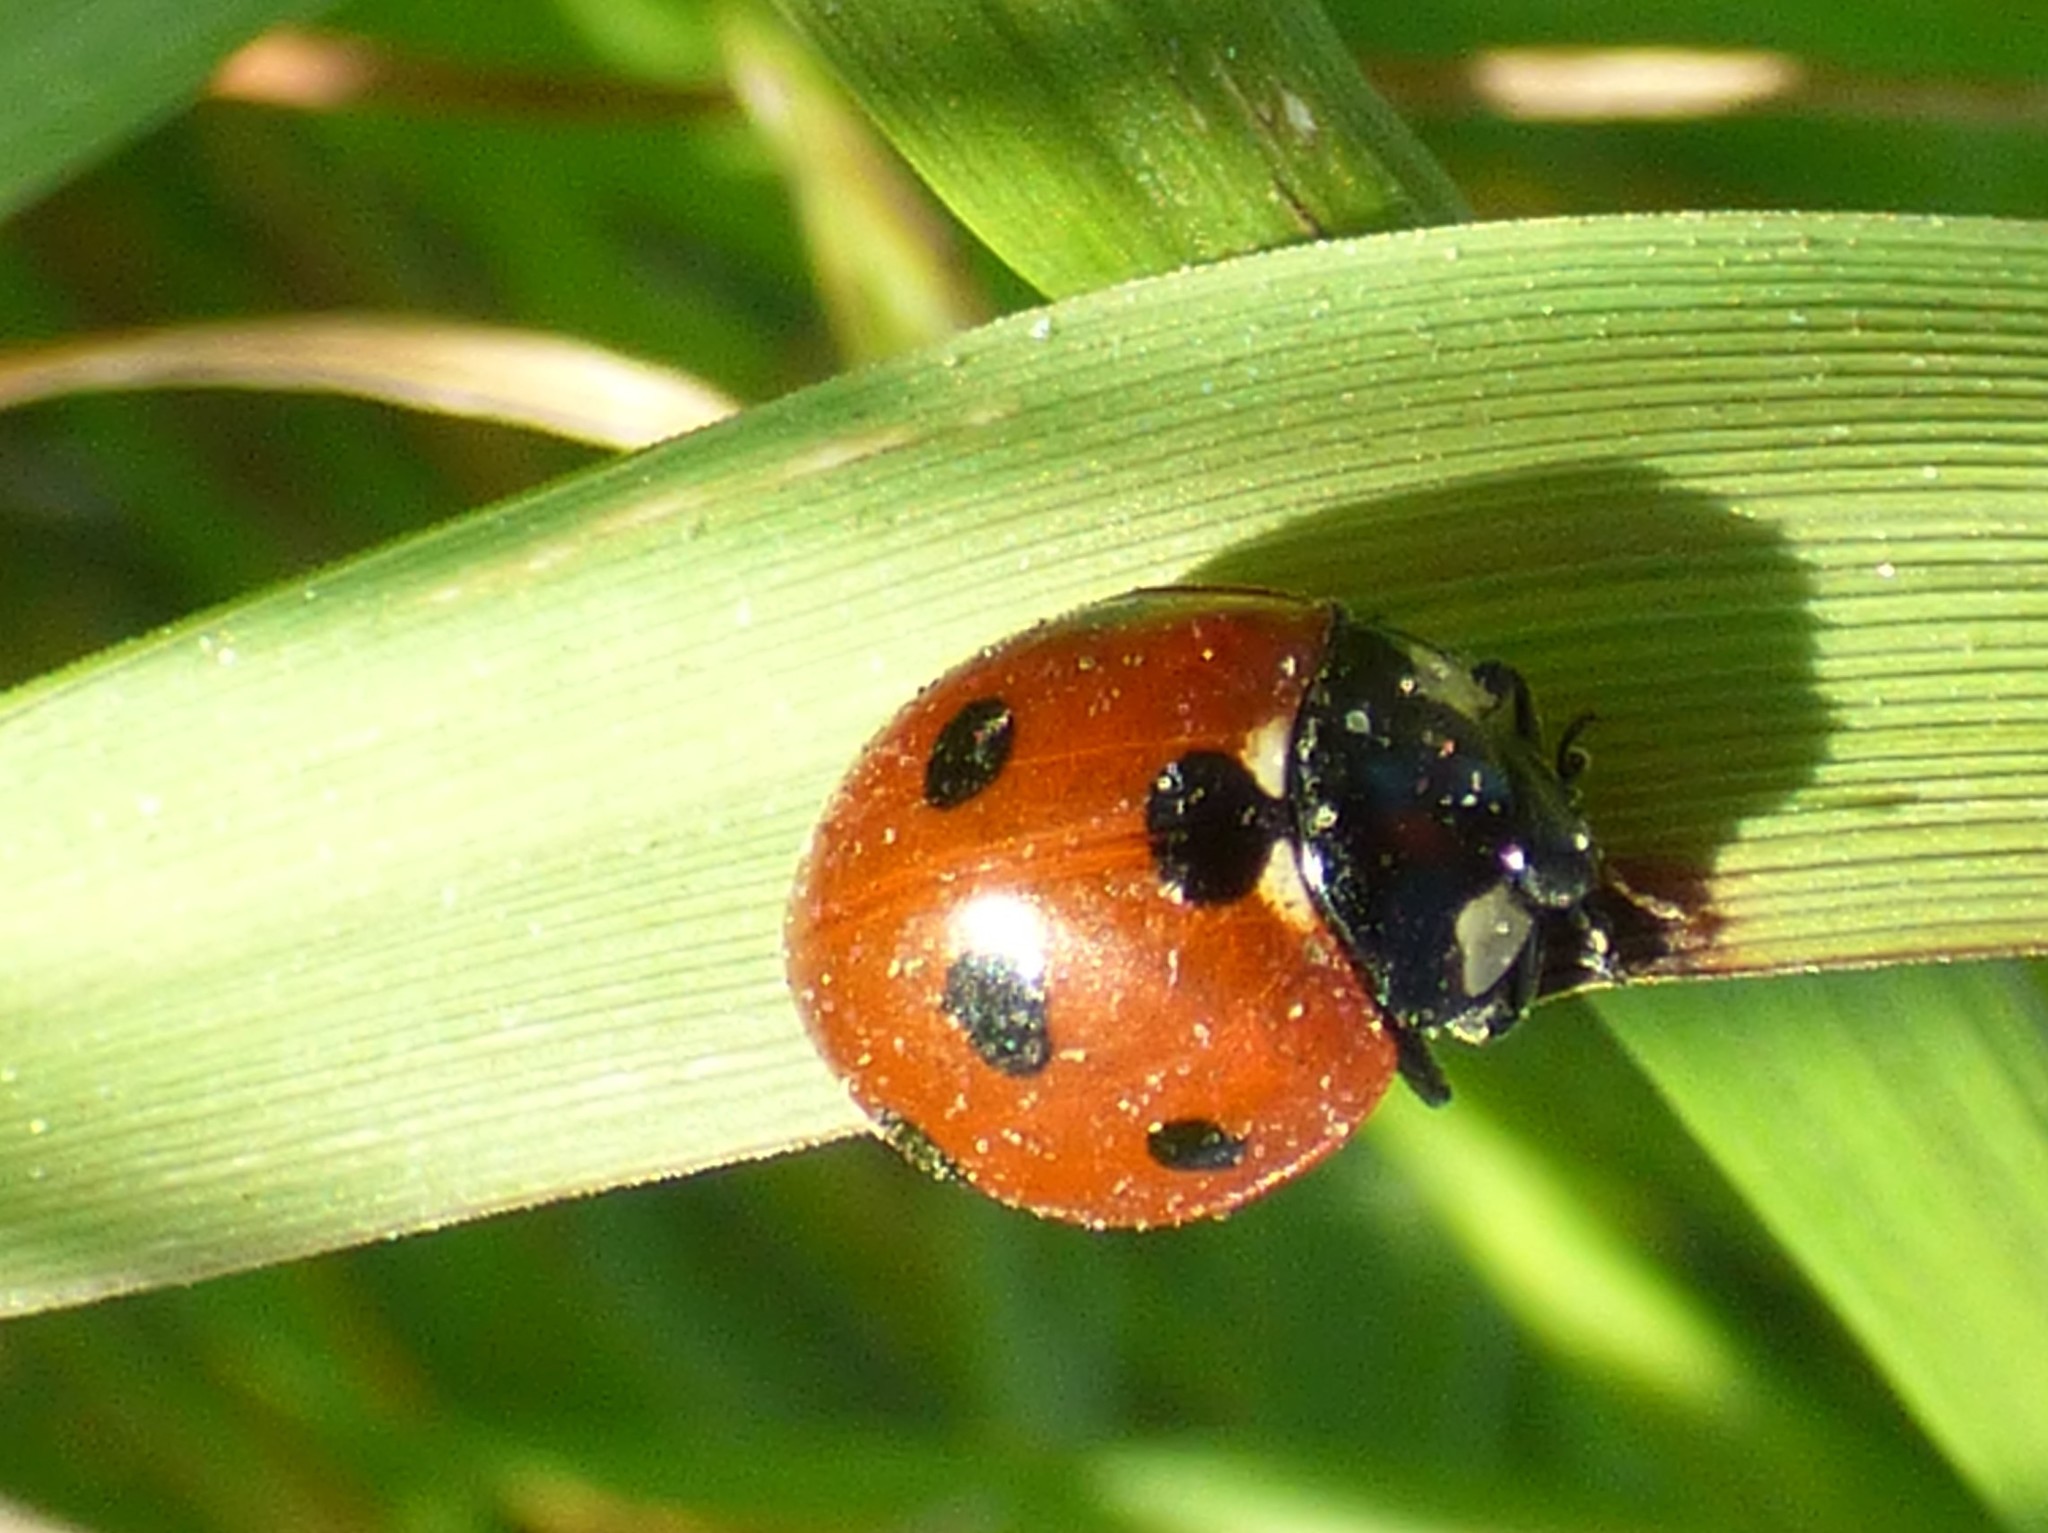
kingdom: Animalia
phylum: Arthropoda
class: Insecta
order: Coleoptera
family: Coccinellidae
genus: Coccinella
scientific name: Coccinella septempunctata
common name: Sevenspotted lady beetle
